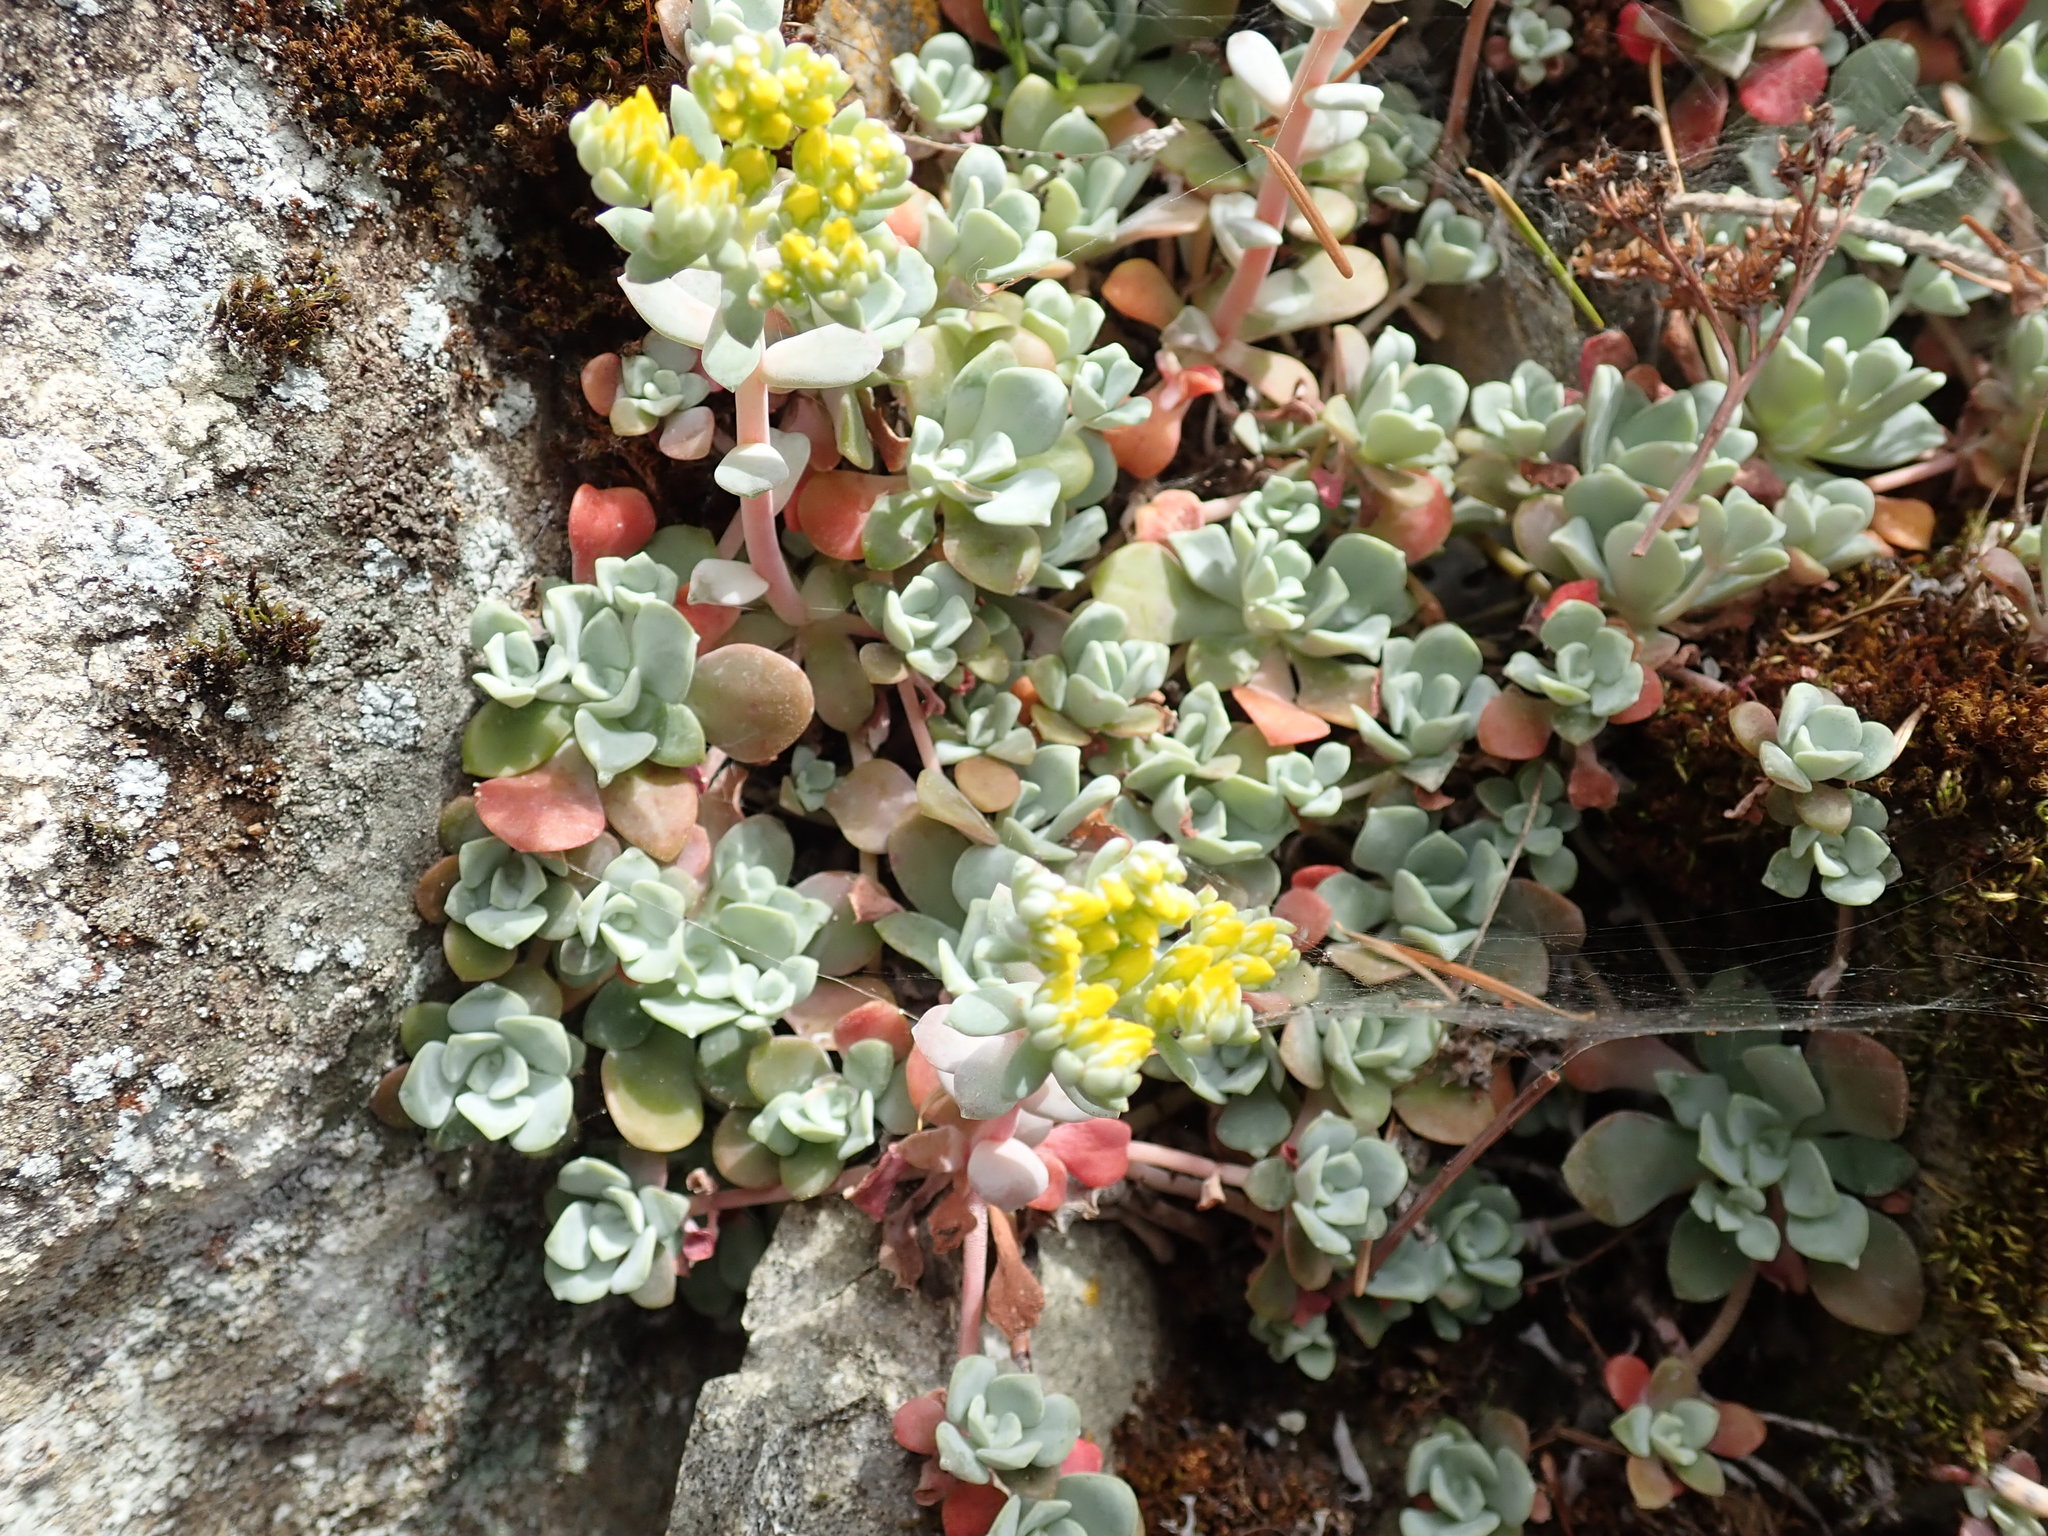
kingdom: Plantae
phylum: Tracheophyta
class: Magnoliopsida
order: Saxifragales
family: Crassulaceae
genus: Sedum
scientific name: Sedum spathulifolium
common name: Colorado stonecrop
